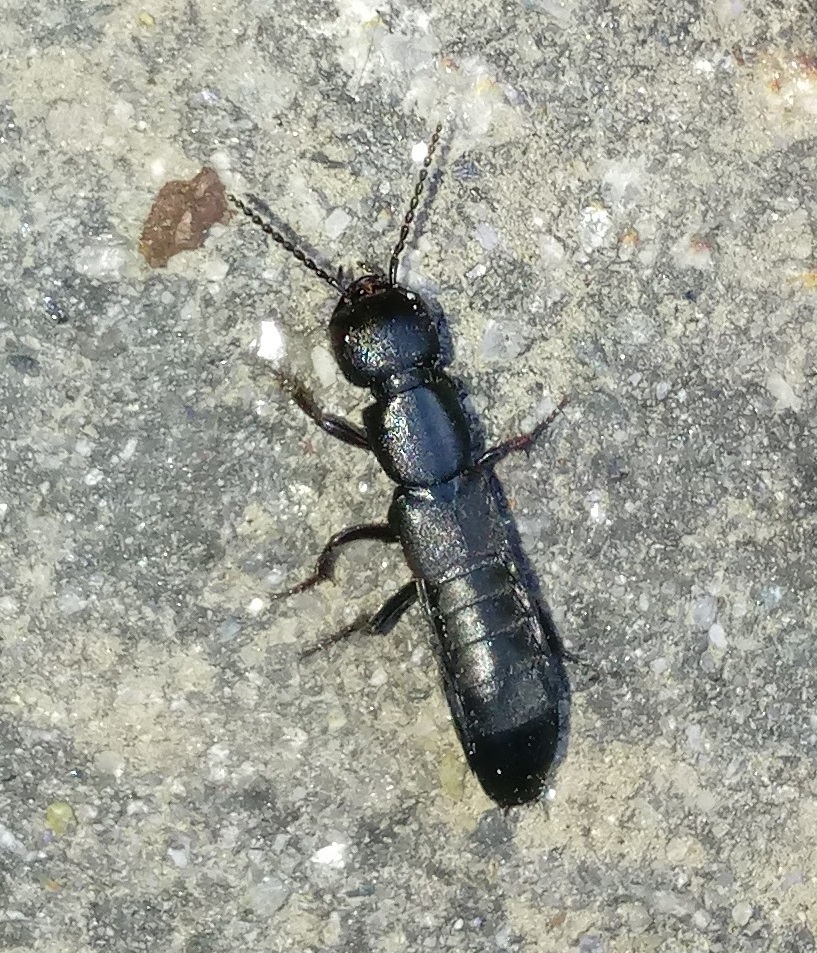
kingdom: Animalia
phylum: Arthropoda
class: Insecta
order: Coleoptera
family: Staphylinidae
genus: Ocypus
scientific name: Ocypus nitens
